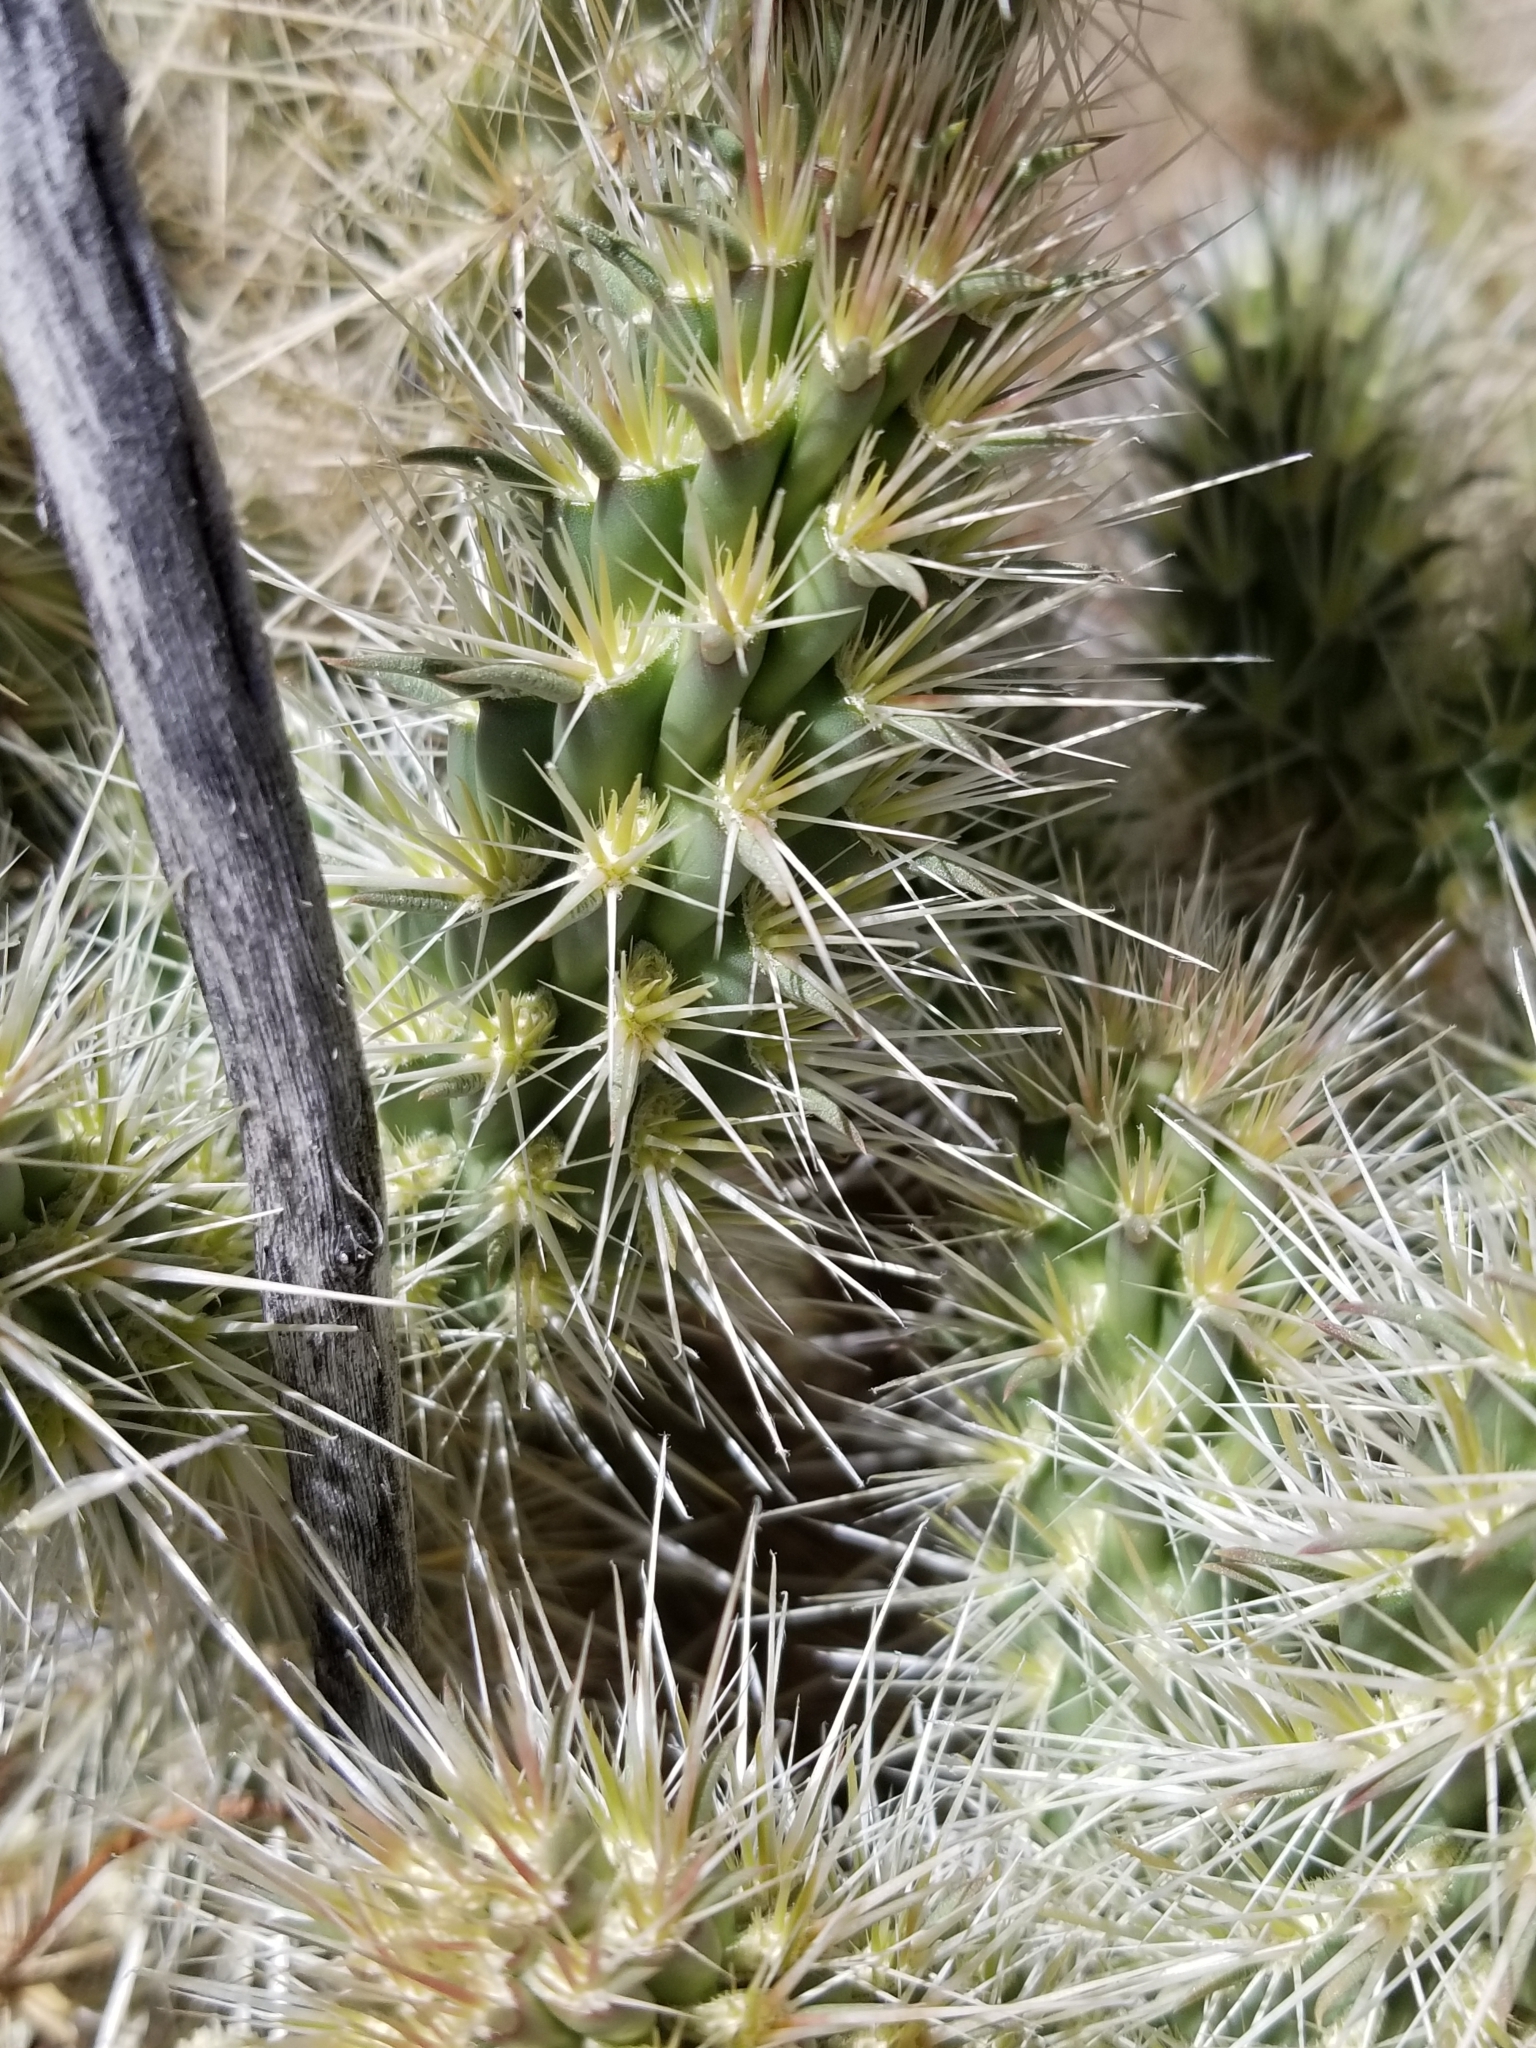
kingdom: Plantae
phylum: Tracheophyta
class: Magnoliopsida
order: Caryophyllales
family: Cactaceae
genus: Cylindropuntia
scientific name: Cylindropuntia echinocarpa
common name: Ground cholla
